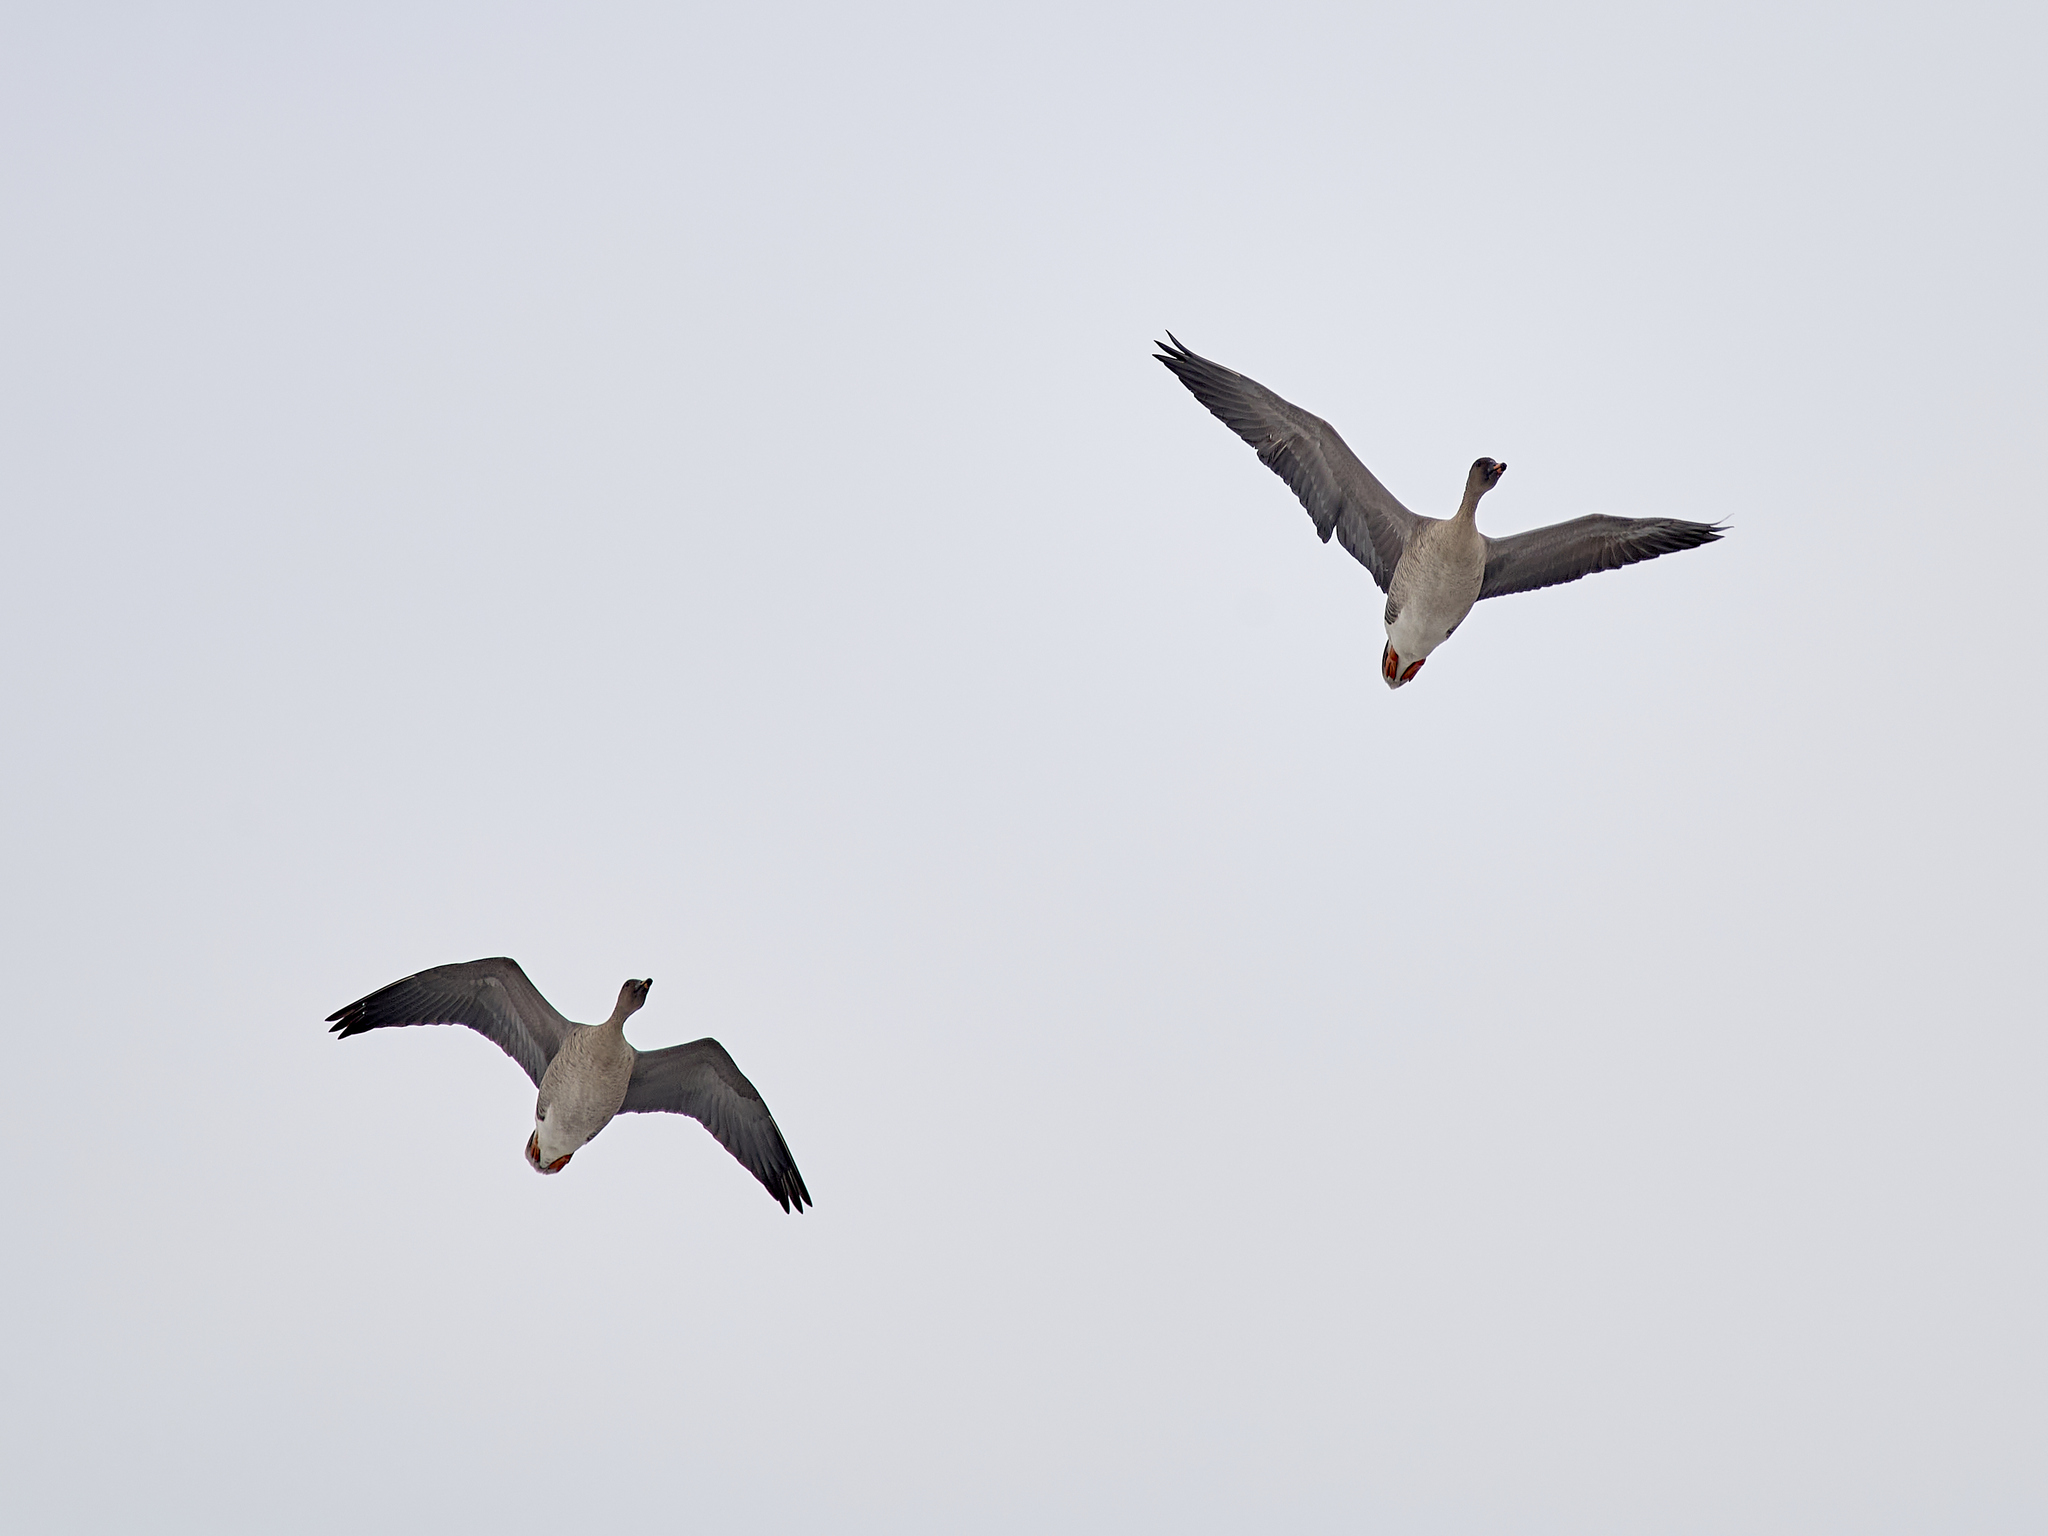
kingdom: Animalia
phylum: Chordata
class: Aves
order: Anseriformes
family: Anatidae
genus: Anser
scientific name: Anser serrirostris
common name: Tundra bean goose
